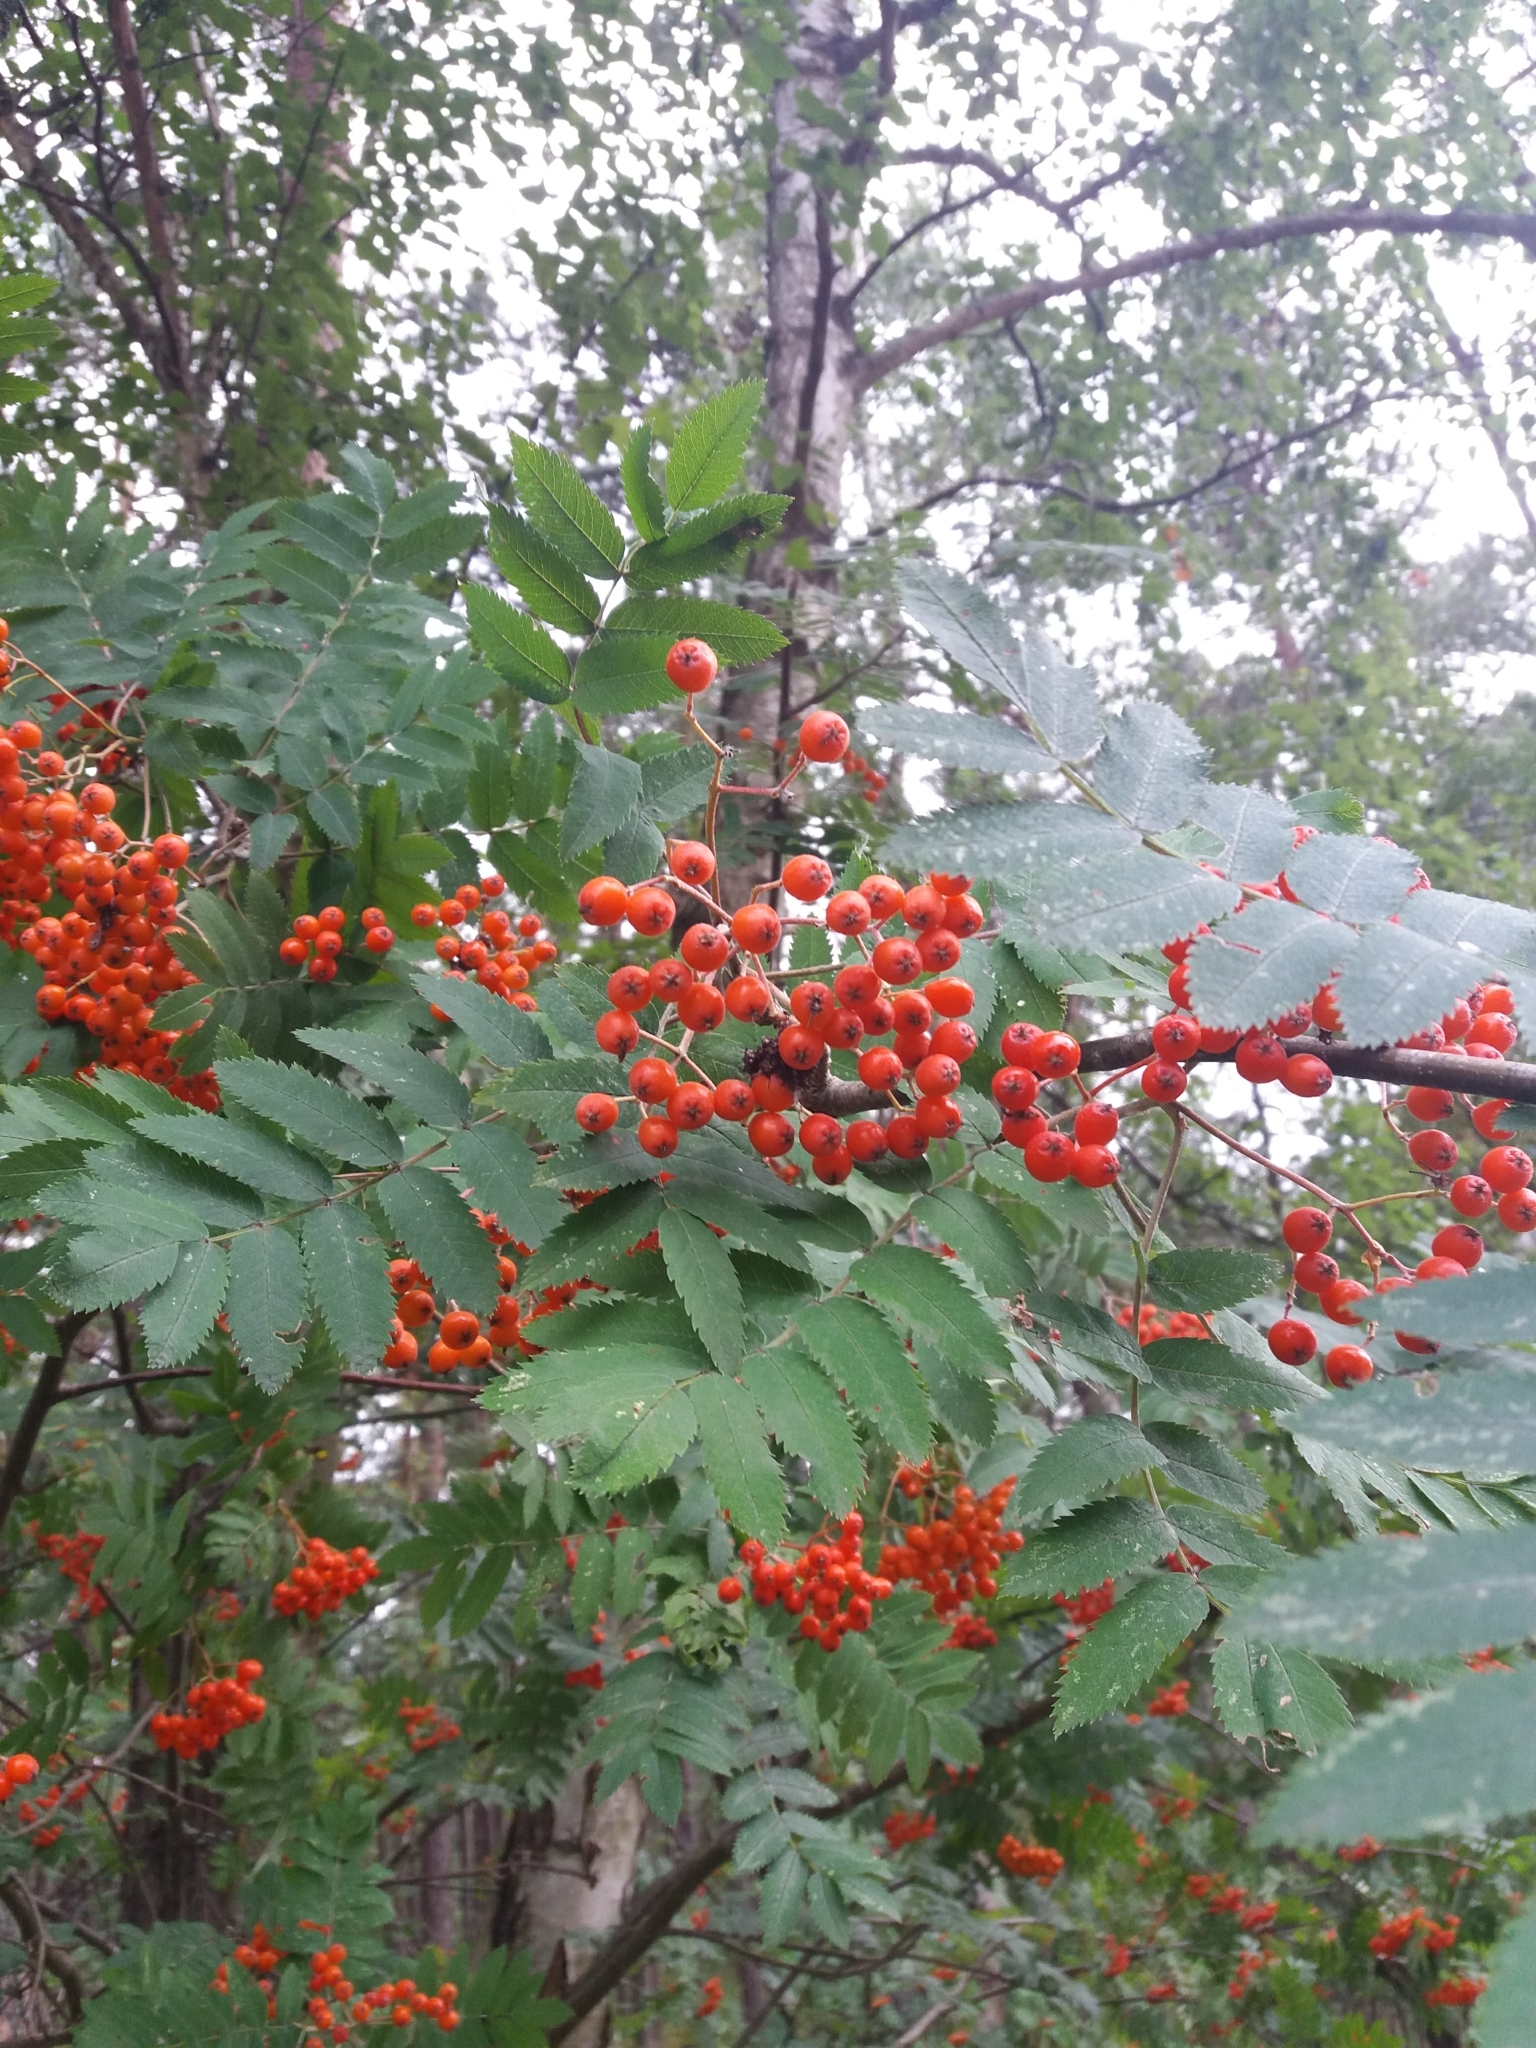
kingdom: Plantae
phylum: Tracheophyta
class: Magnoliopsida
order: Rosales
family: Rosaceae
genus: Sorbus
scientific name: Sorbus aucuparia
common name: Rowan
